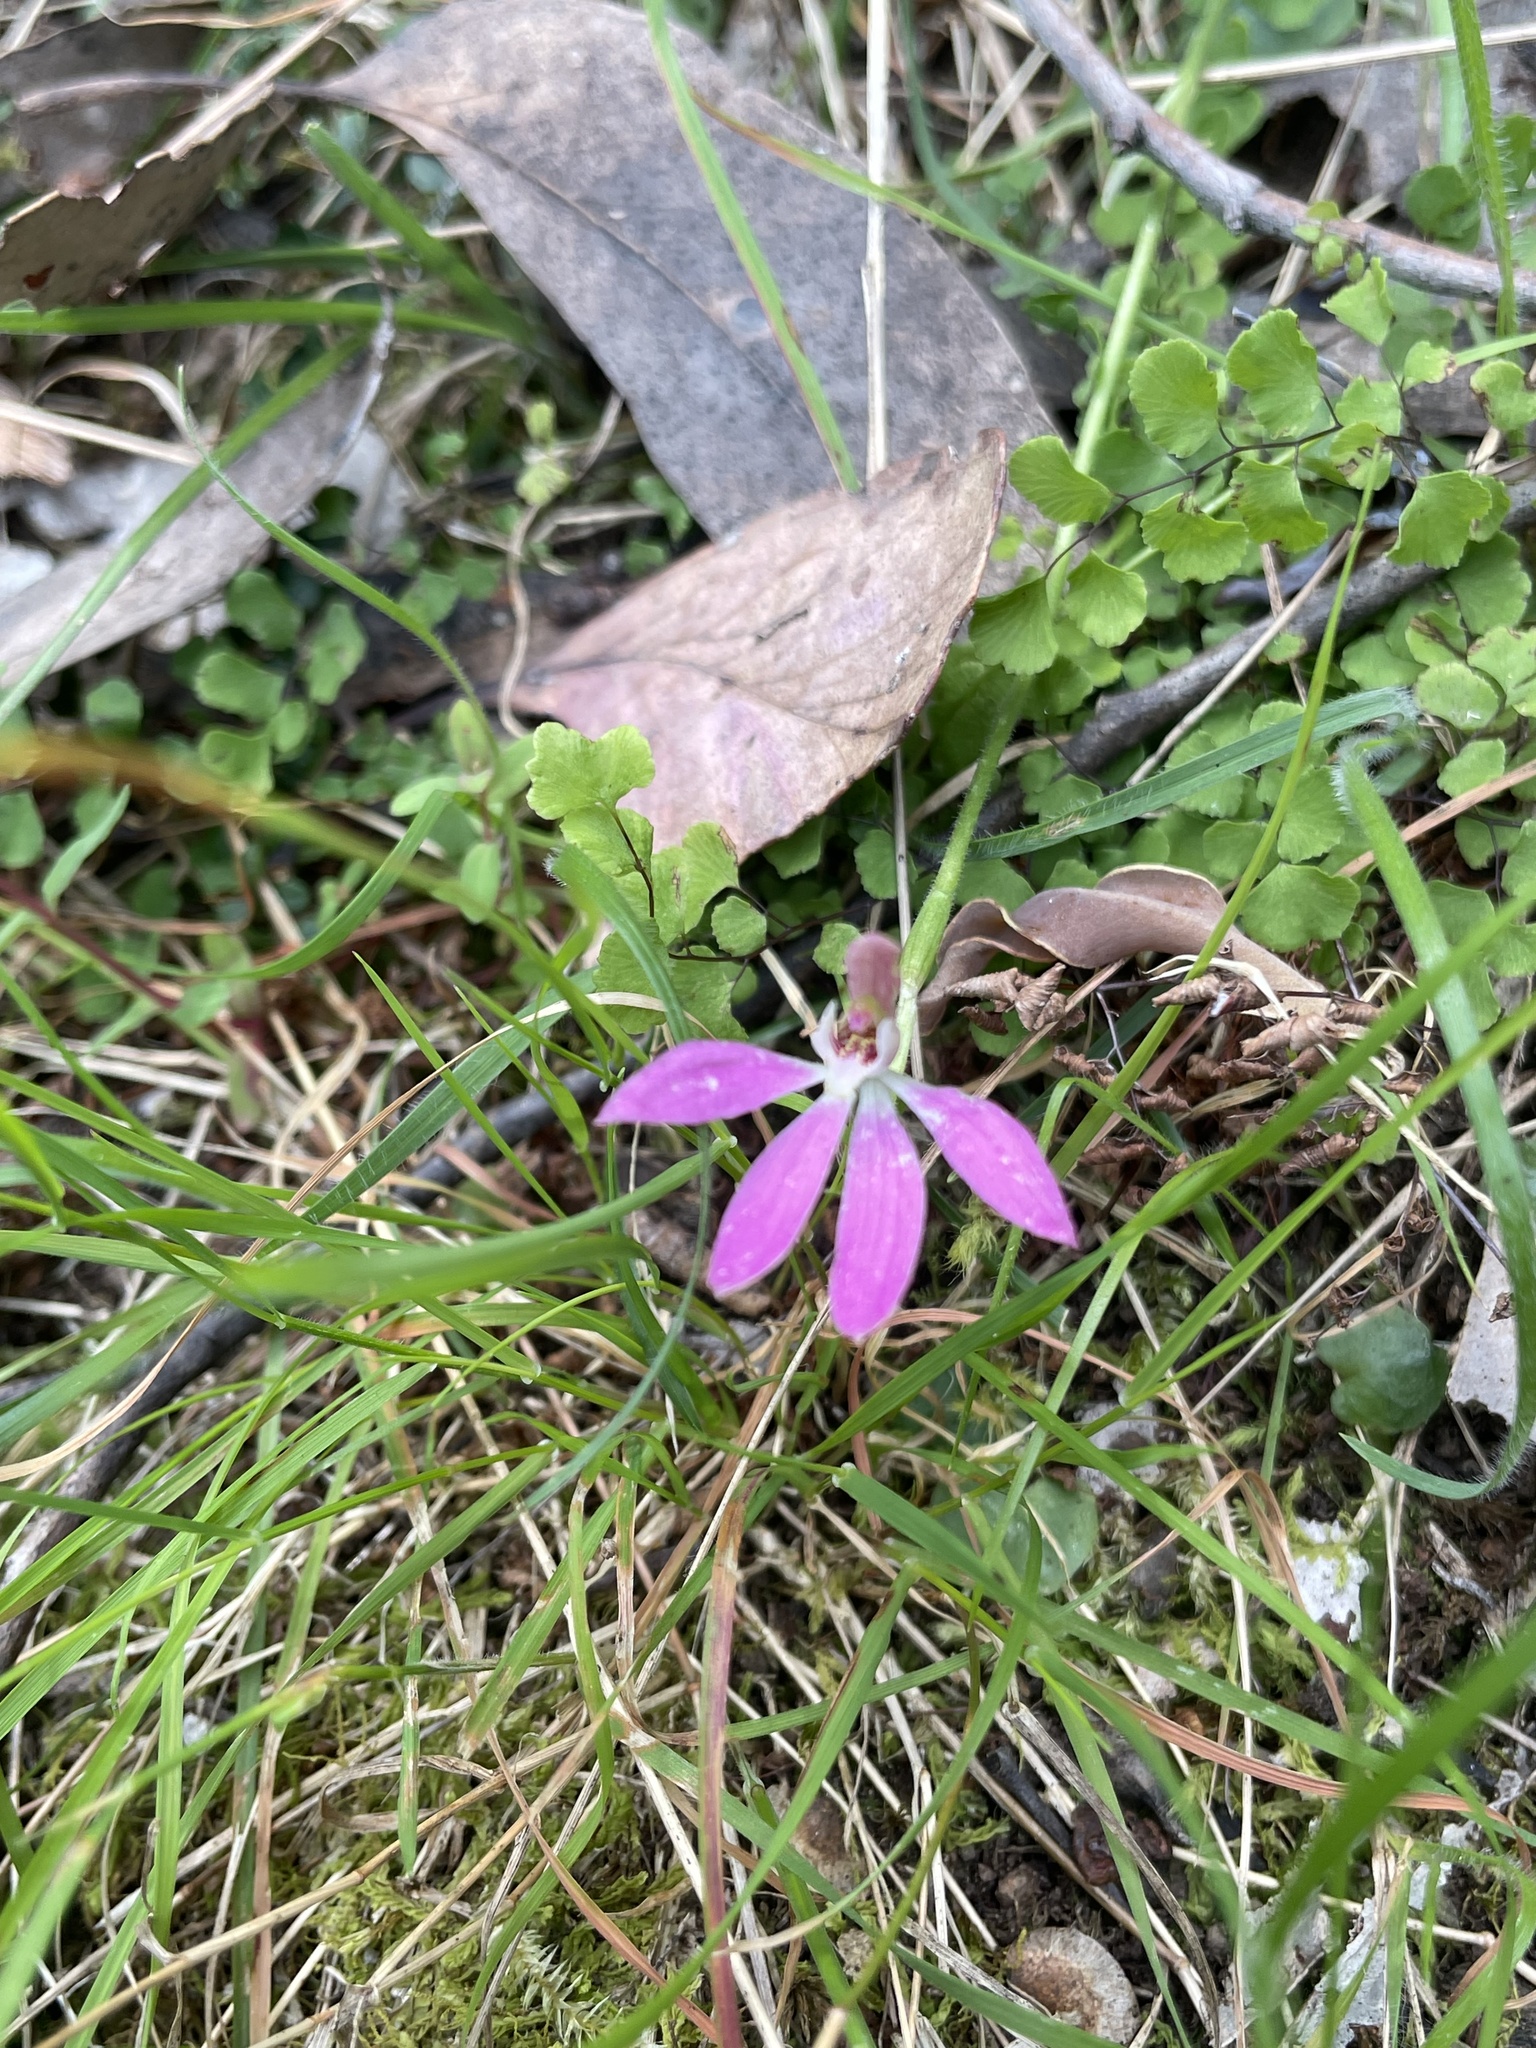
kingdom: Plantae
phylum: Tracheophyta
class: Liliopsida
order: Asparagales
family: Orchidaceae
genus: Caladenia
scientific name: Caladenia carnea
